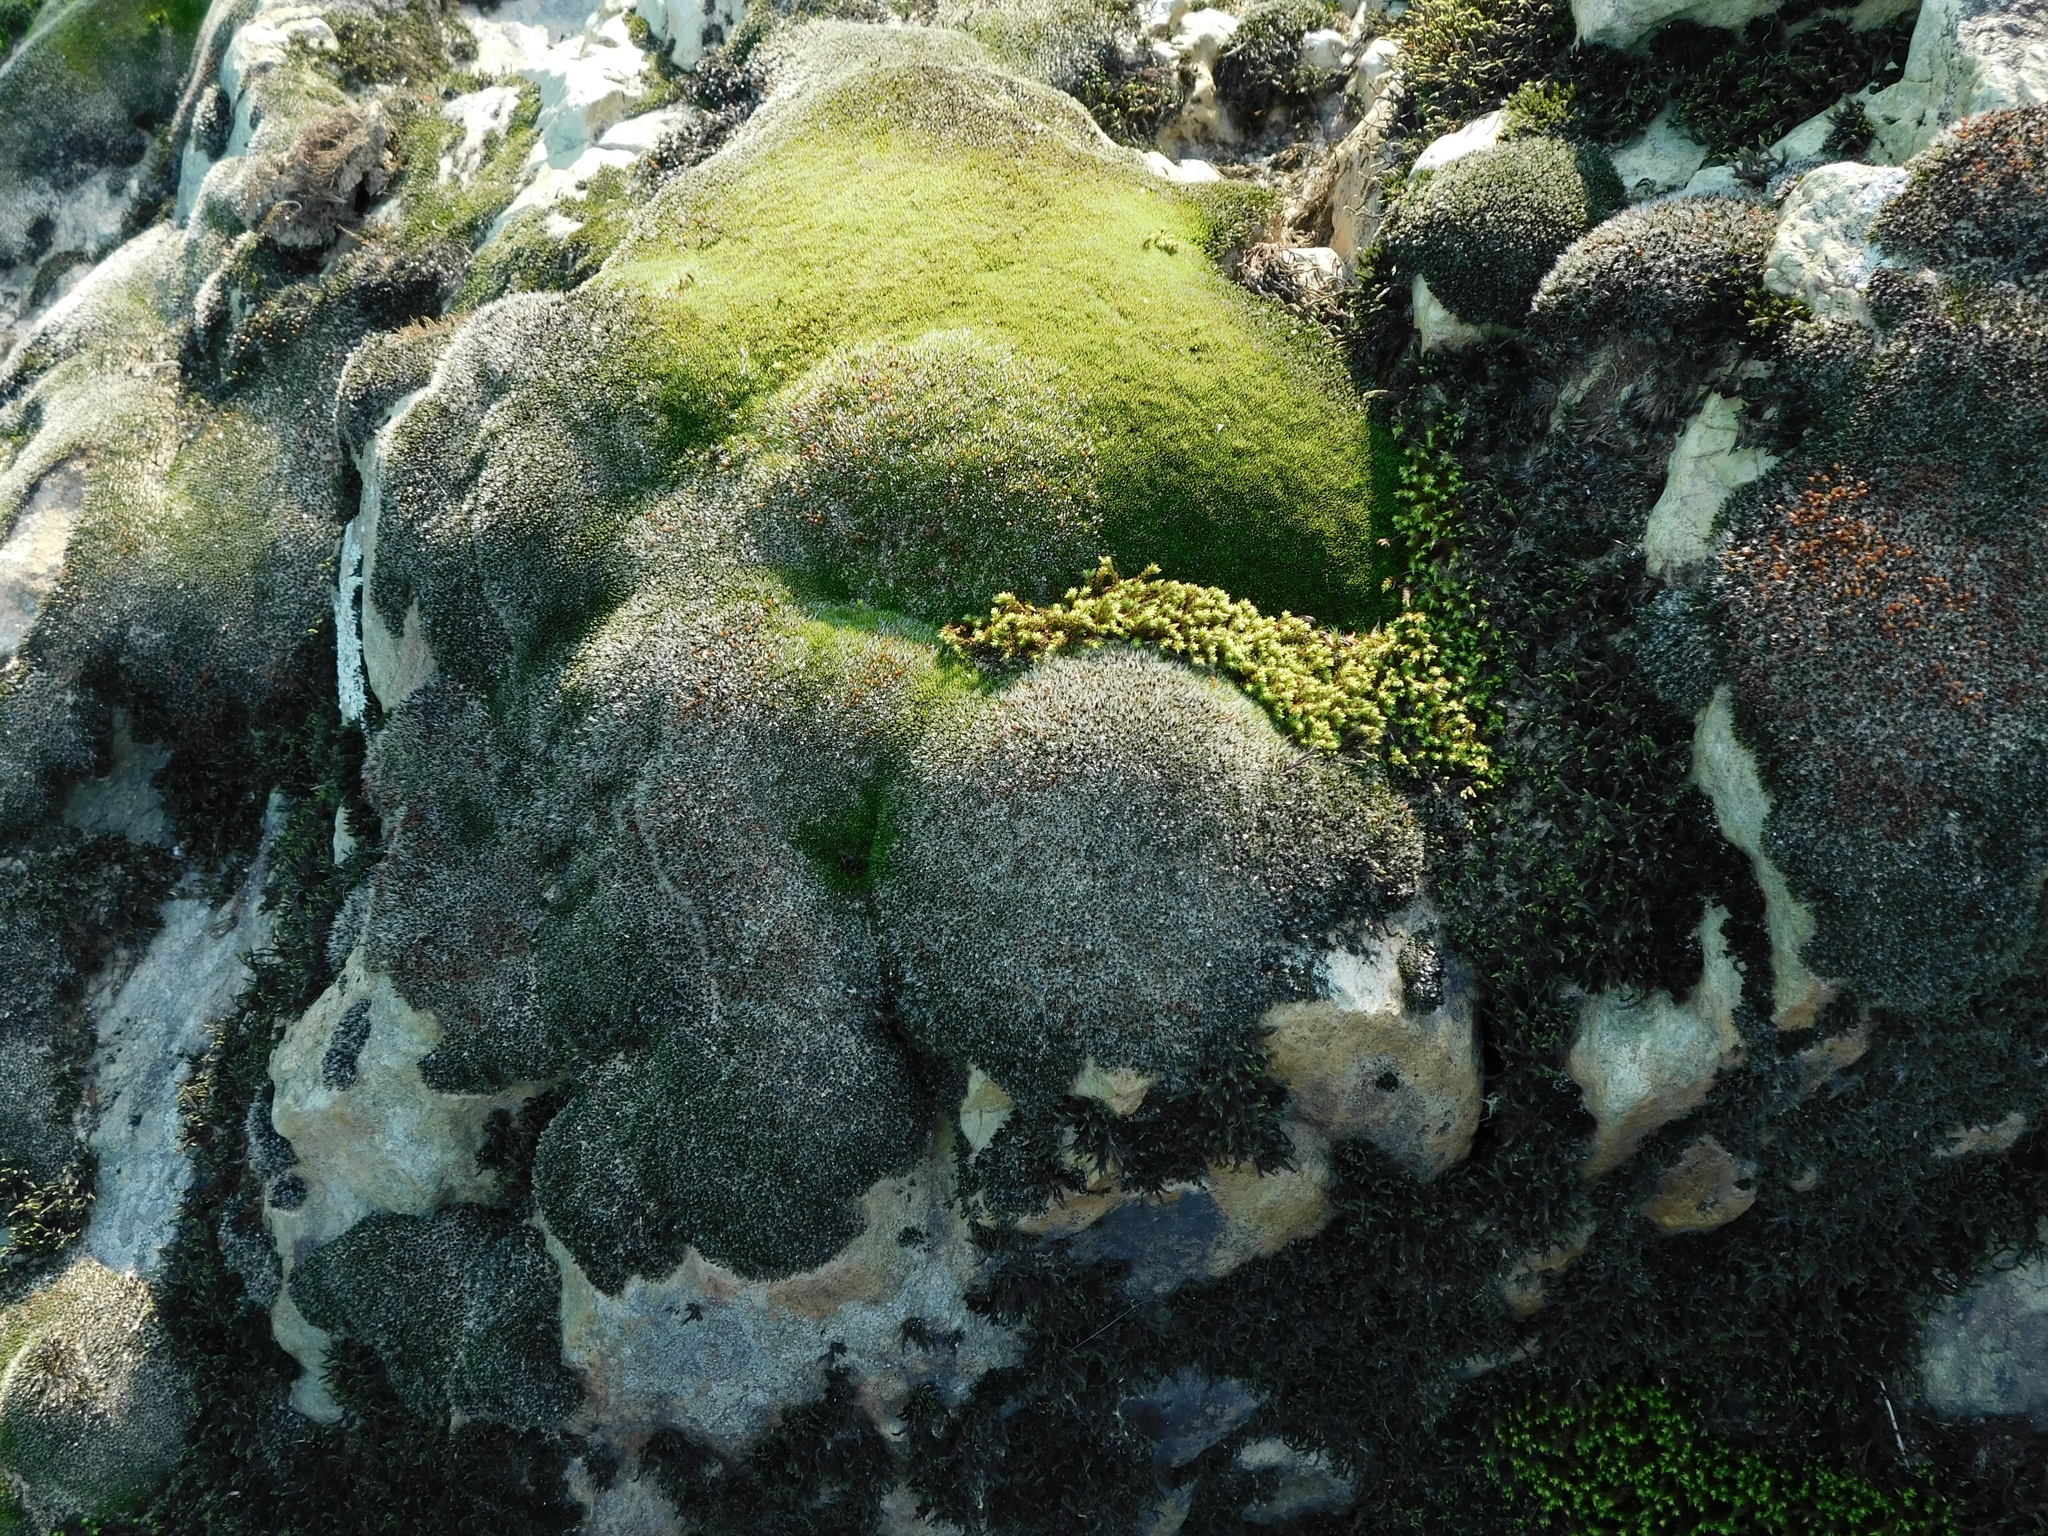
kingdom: Plantae
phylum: Bryophyta
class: Bryopsida
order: Grimmiales
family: Grimmiaceae
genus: Grimmia
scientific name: Grimmia laevigata
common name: Hoary grimmia
